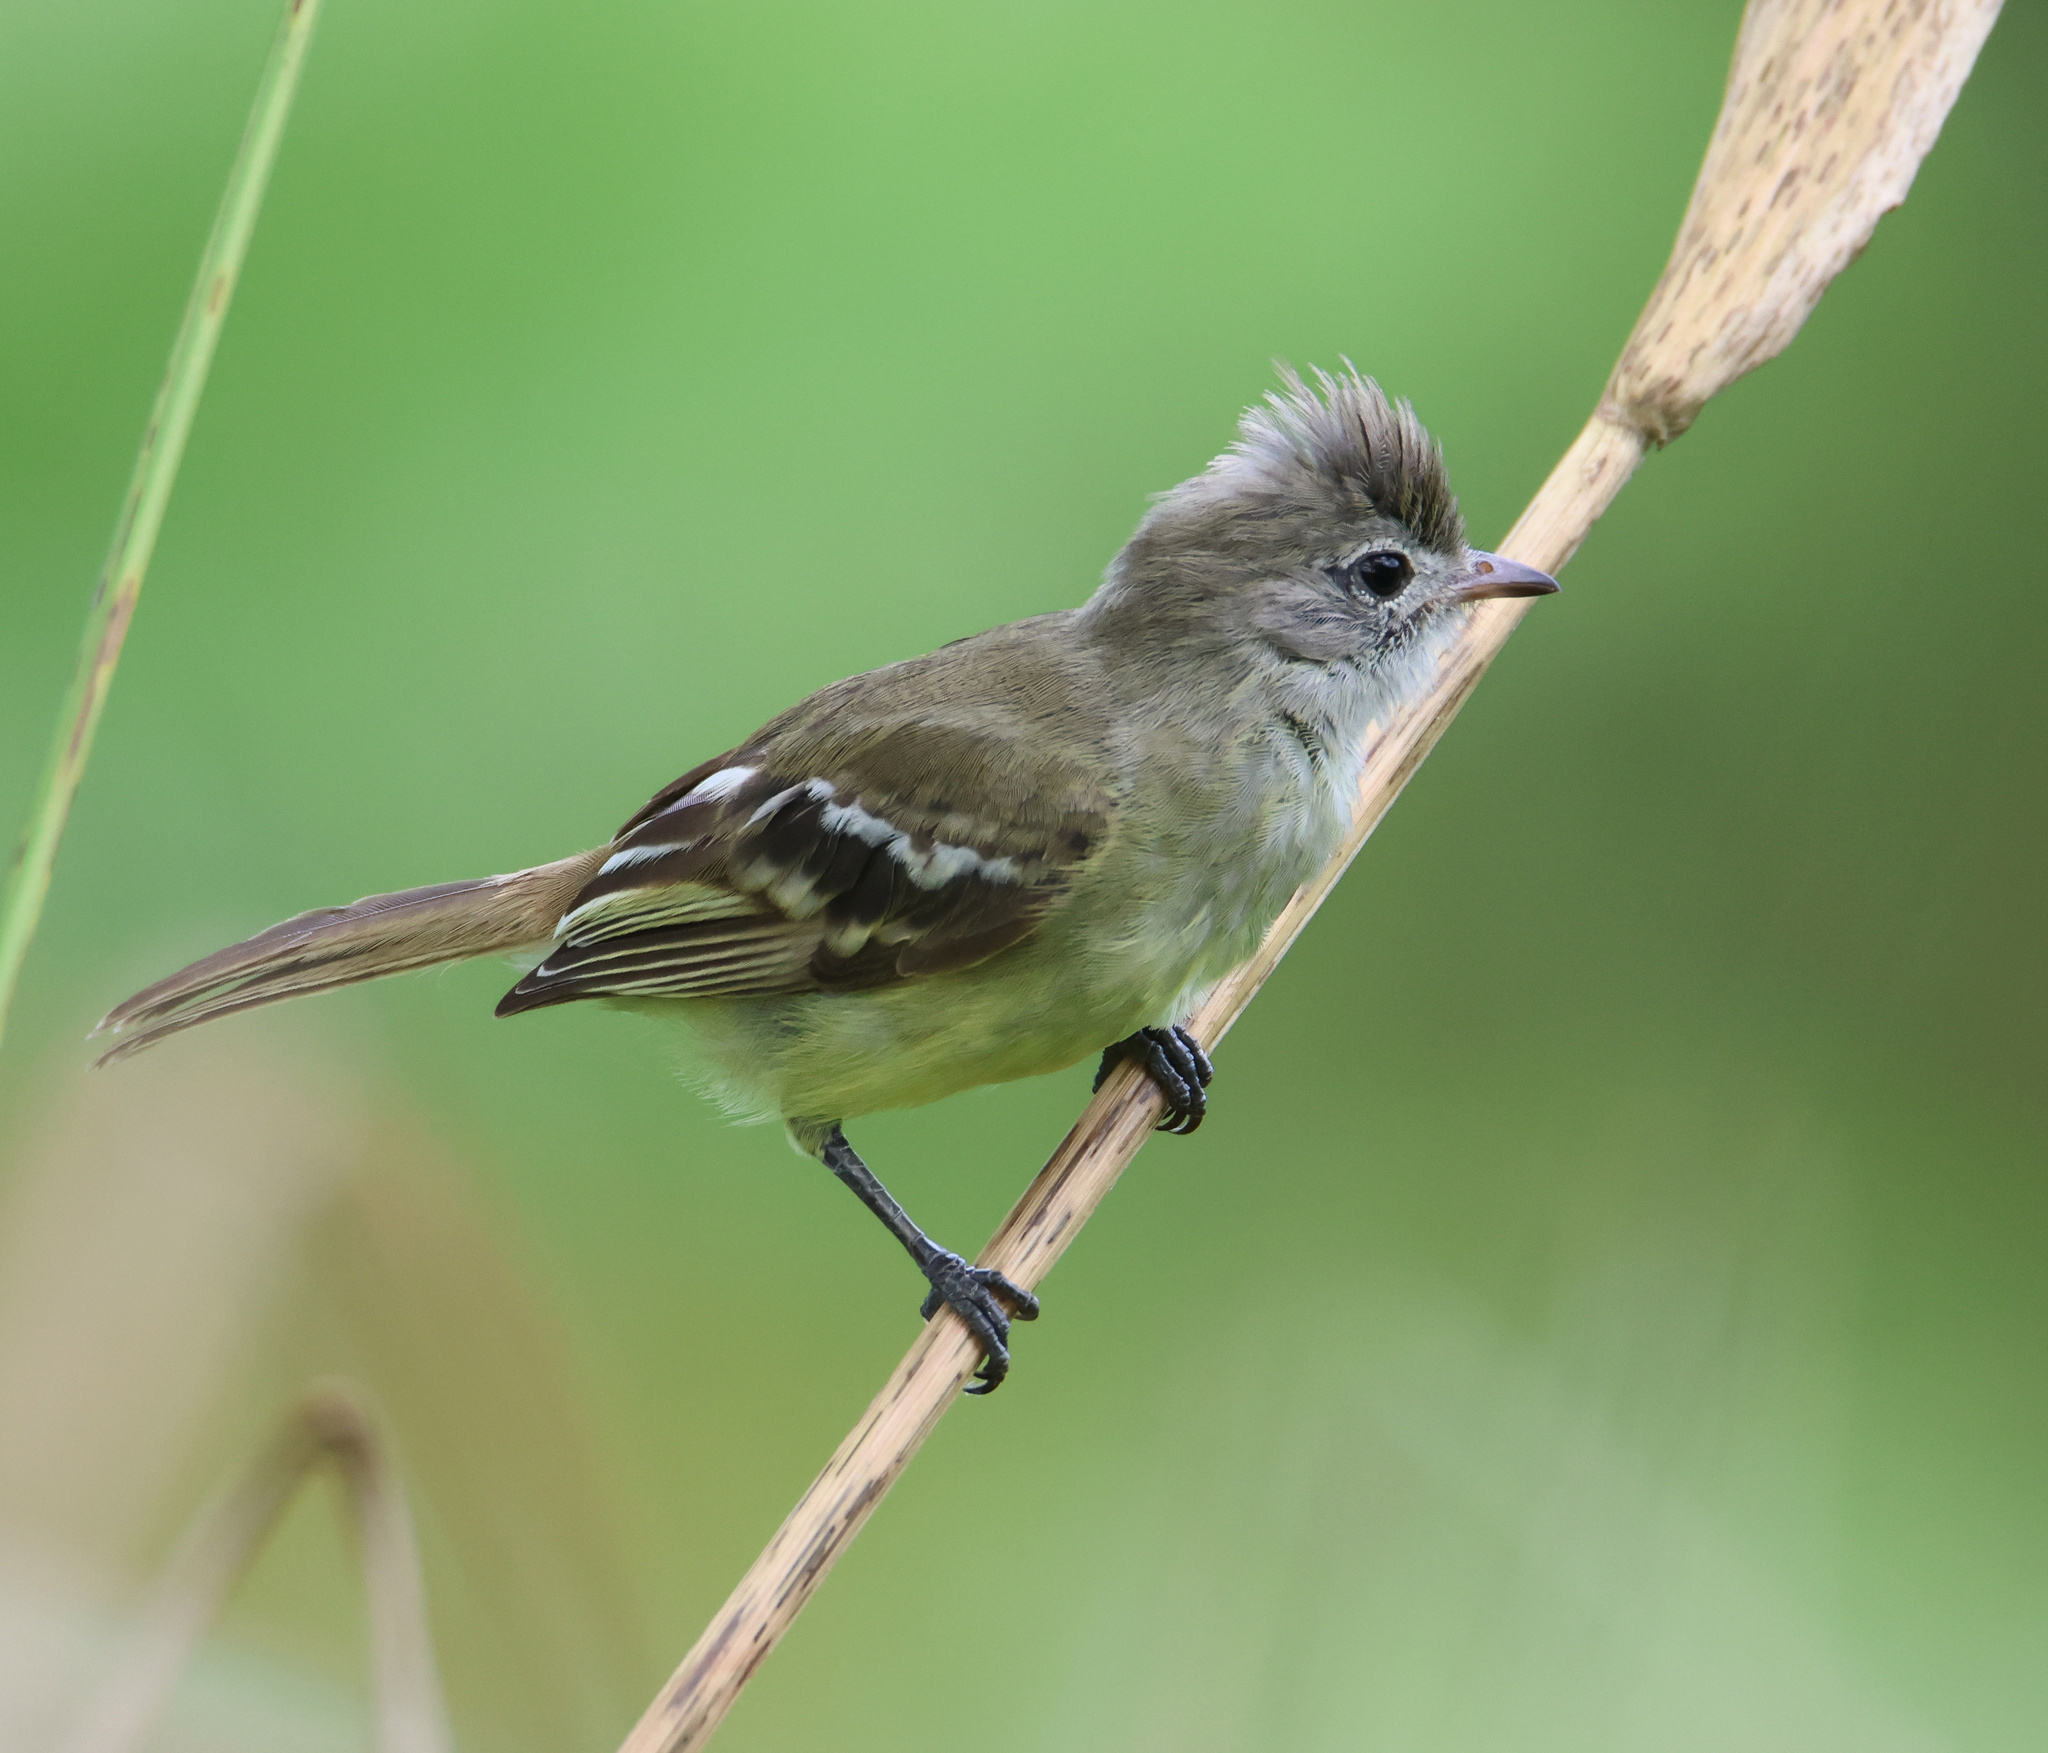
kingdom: Animalia
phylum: Chordata
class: Aves
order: Passeriformes
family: Tyrannidae
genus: Elaenia
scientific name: Elaenia flavogaster
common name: Yellow-bellied elaenia
